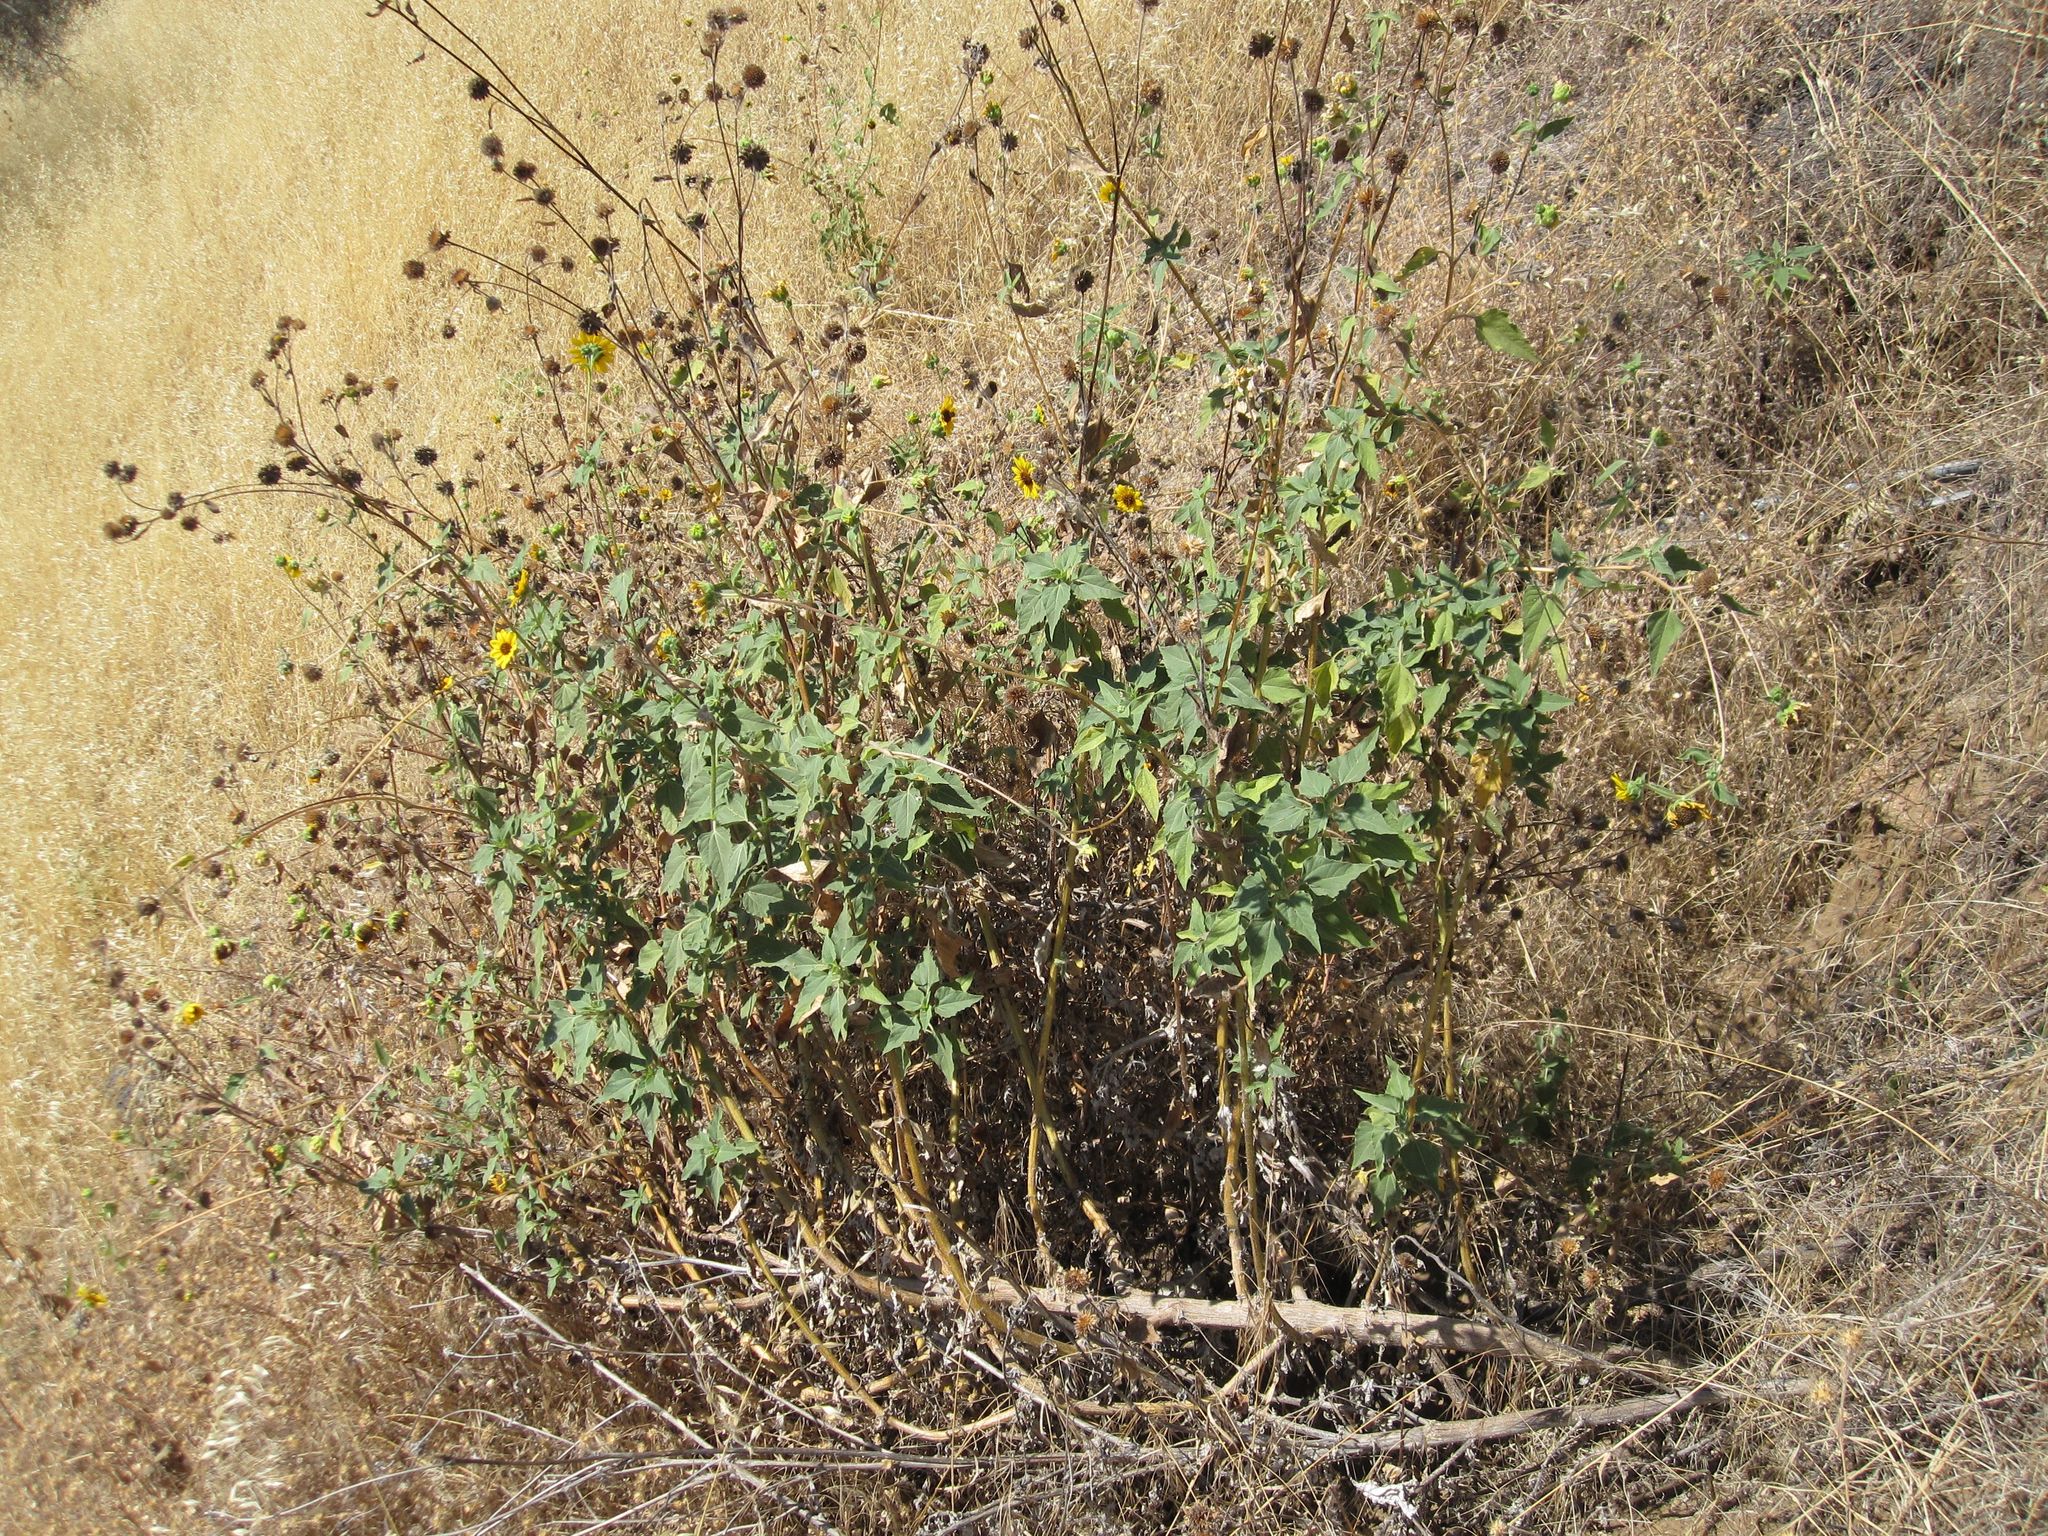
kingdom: Plantae
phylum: Tracheophyta
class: Magnoliopsida
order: Asterales
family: Asteraceae
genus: Helianthus
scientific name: Helianthus winteri
